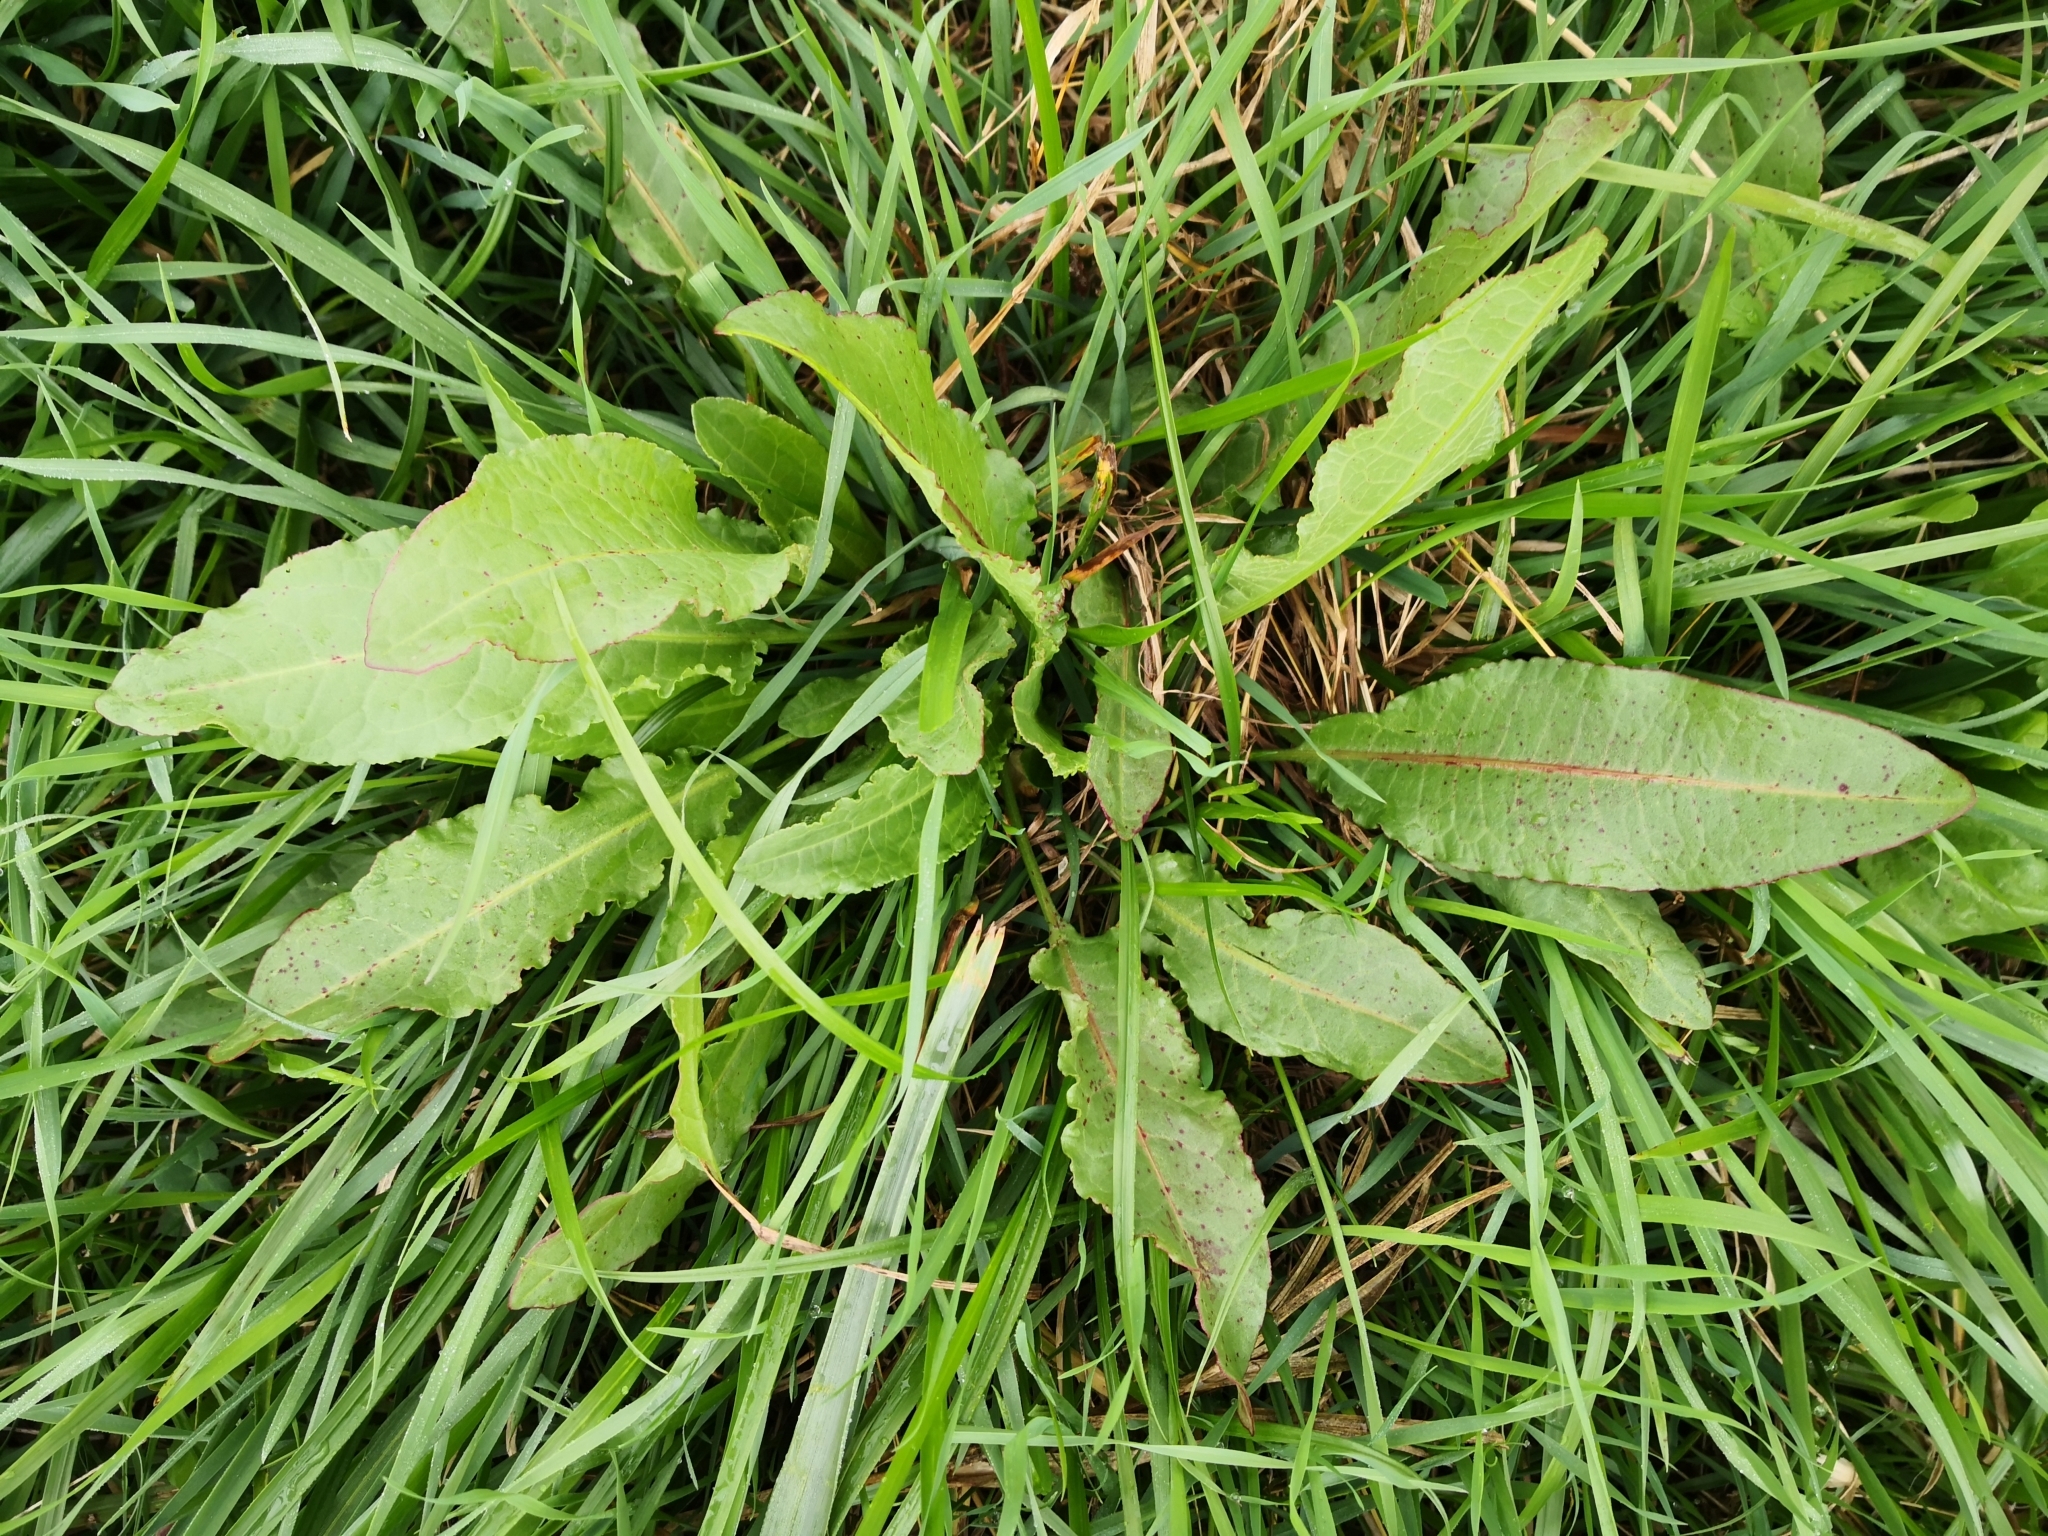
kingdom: Plantae
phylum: Tracheophyta
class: Magnoliopsida
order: Caryophyllales
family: Polygonaceae
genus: Rumex
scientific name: Rumex obtusifolius
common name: Bitter dock
